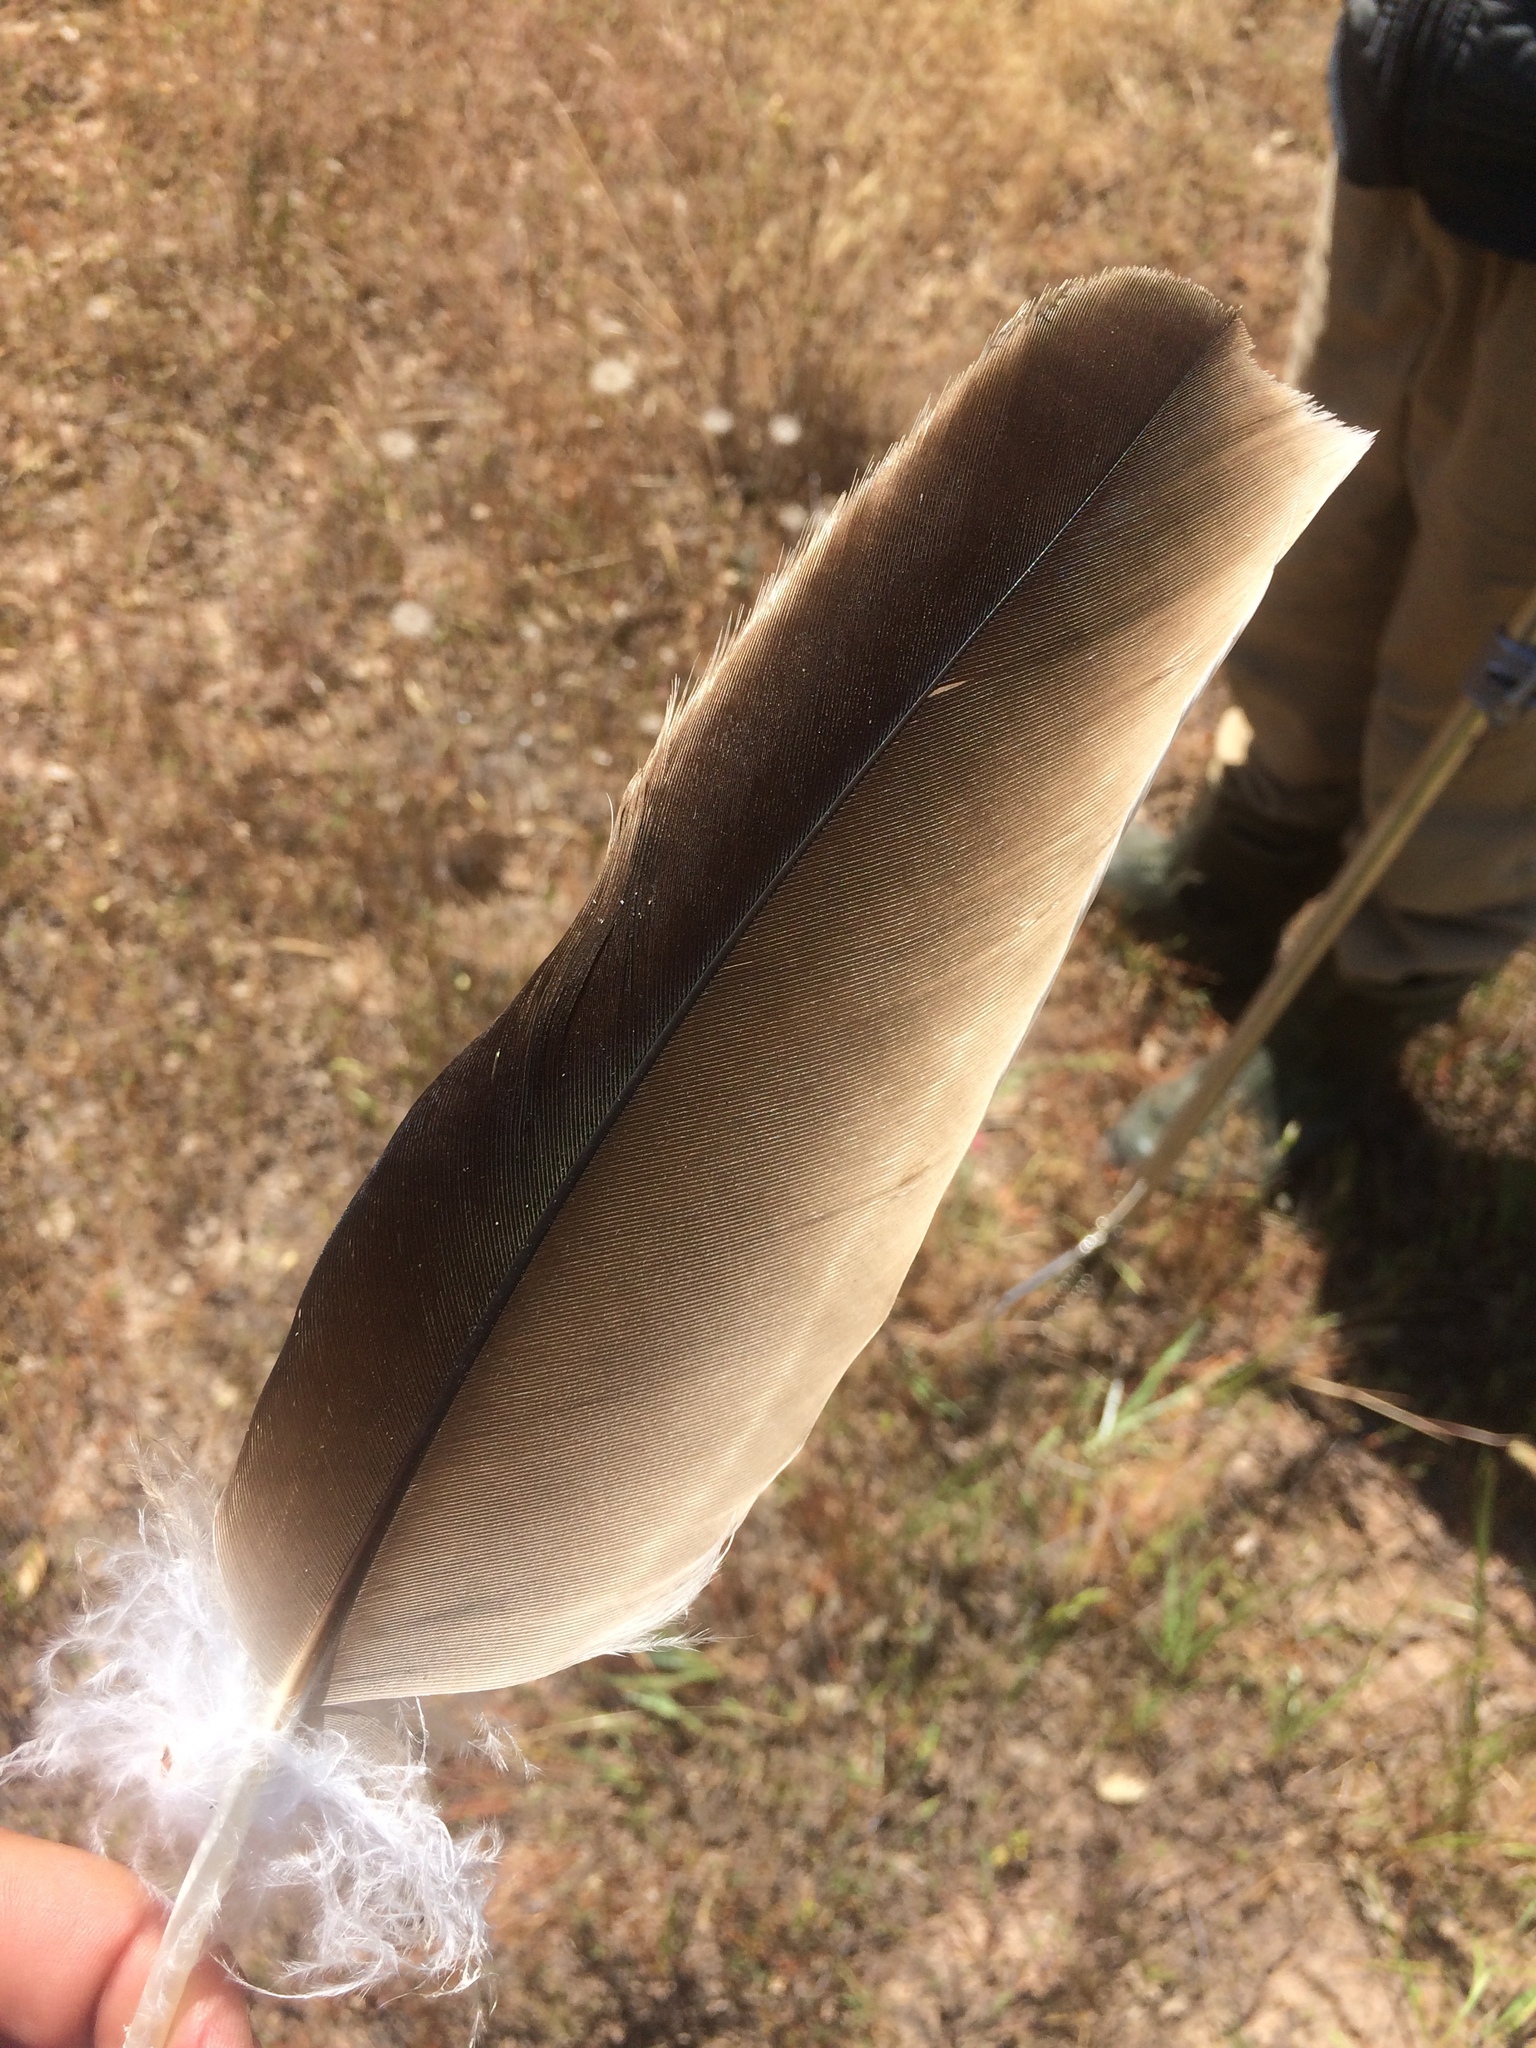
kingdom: Animalia
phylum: Chordata
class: Aves
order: Accipitriformes
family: Cathartidae
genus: Cathartes
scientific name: Cathartes aura
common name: Turkey vulture
